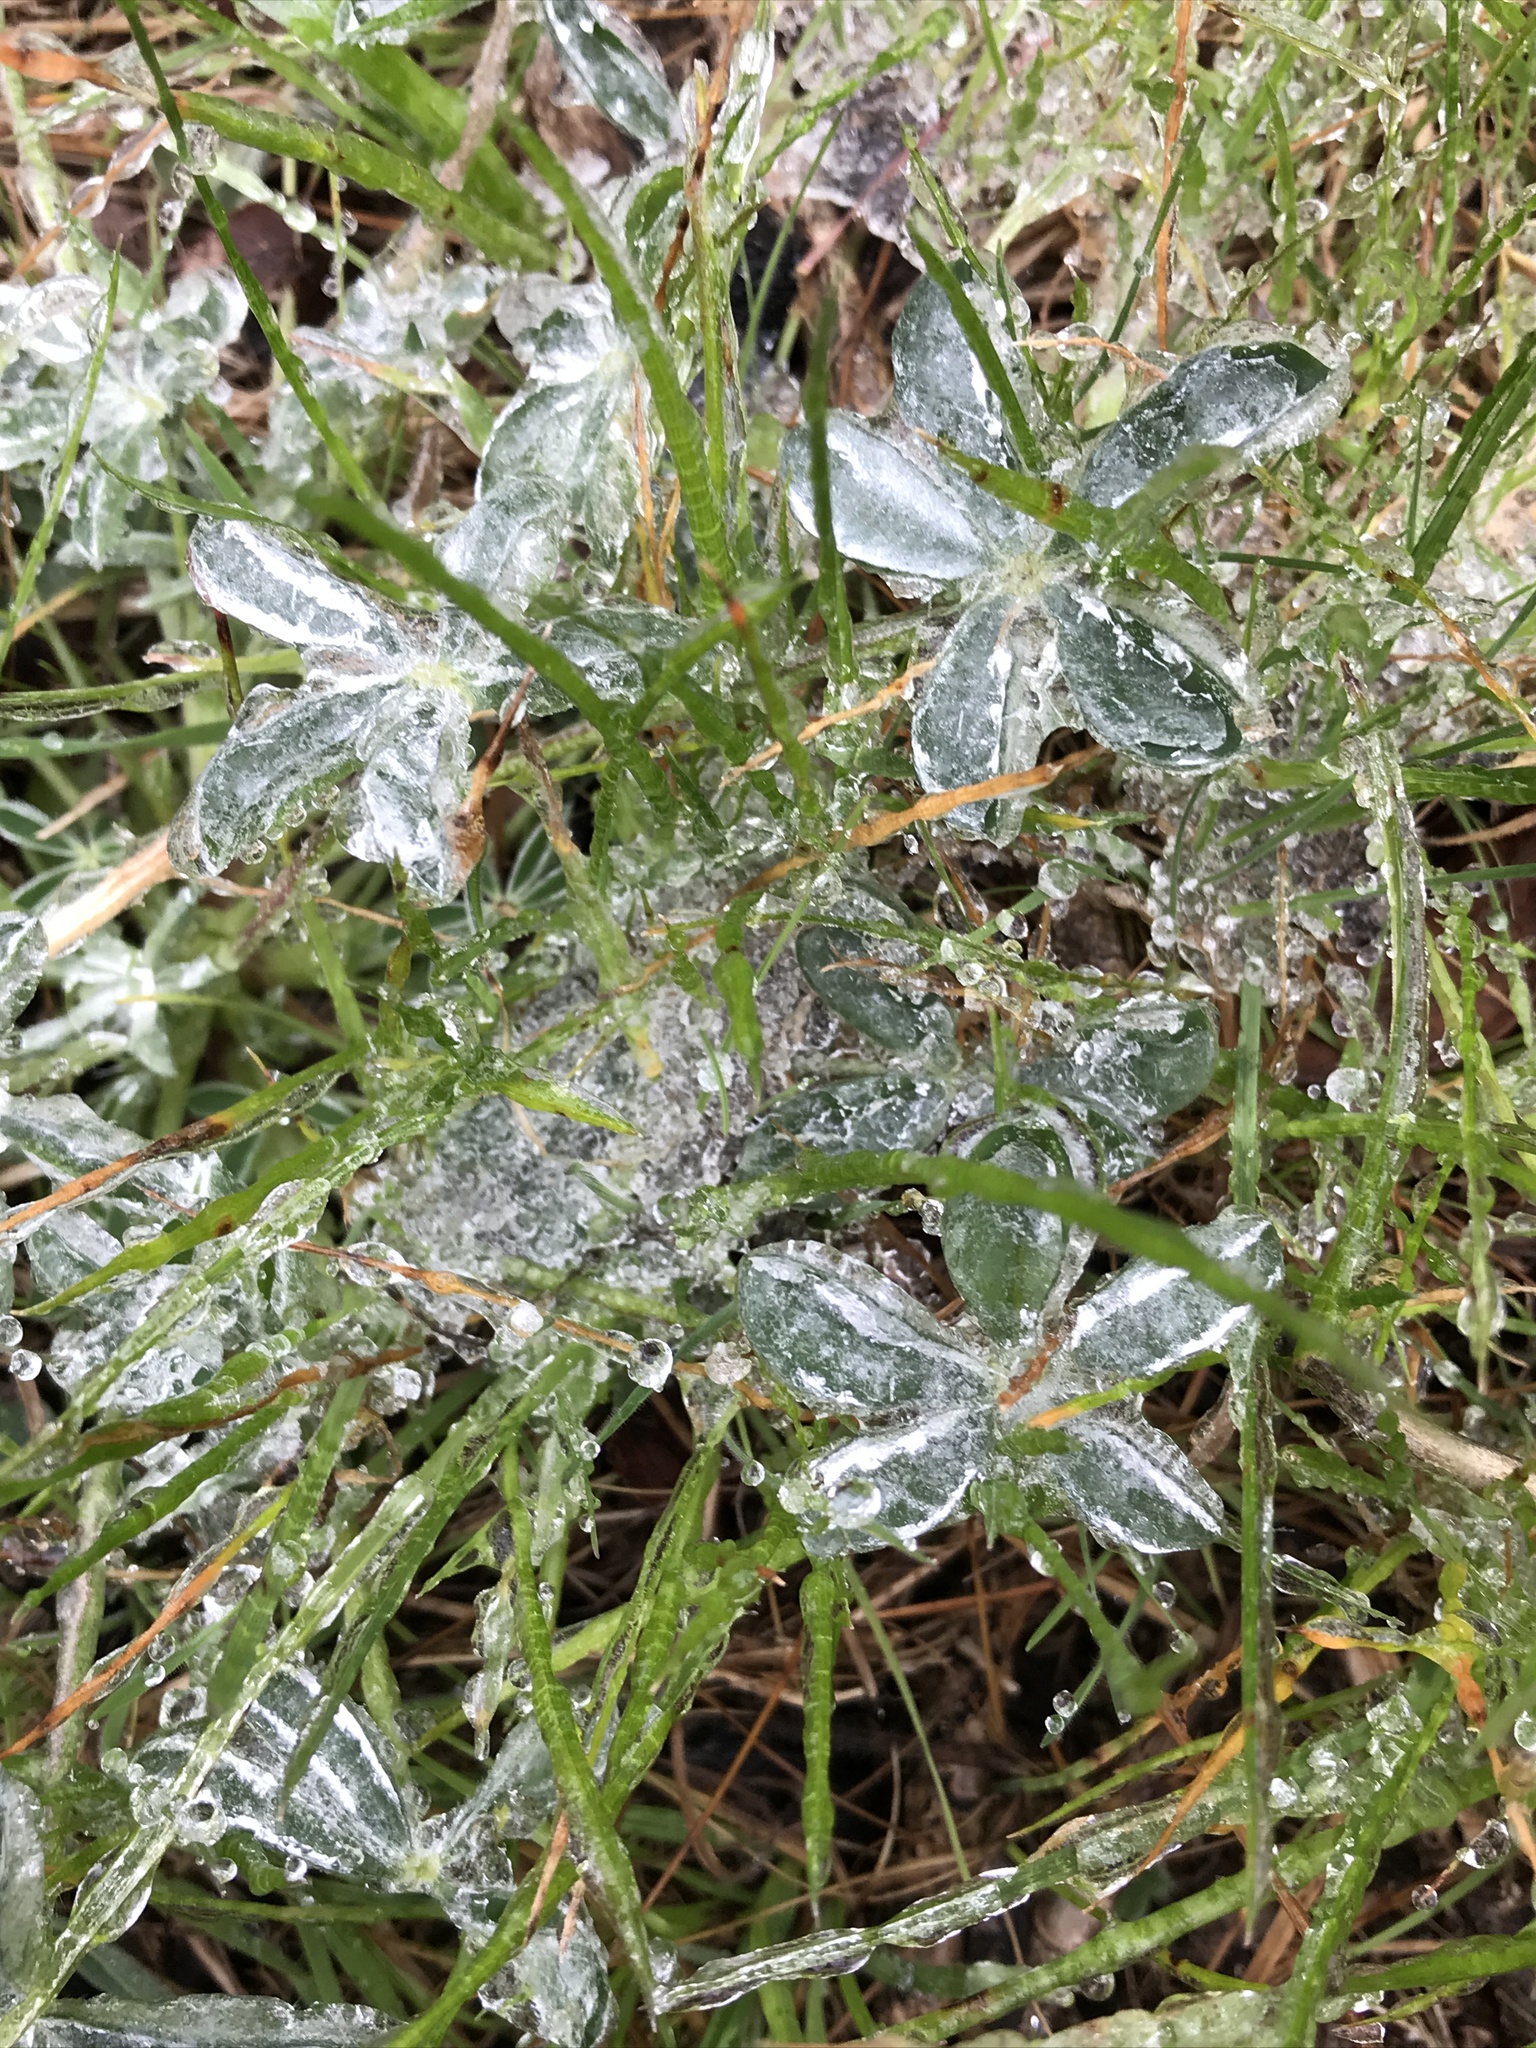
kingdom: Plantae
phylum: Tracheophyta
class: Magnoliopsida
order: Fabales
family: Fabaceae
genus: Lupinus
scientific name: Lupinus texensis
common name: Texas bluebonnet
